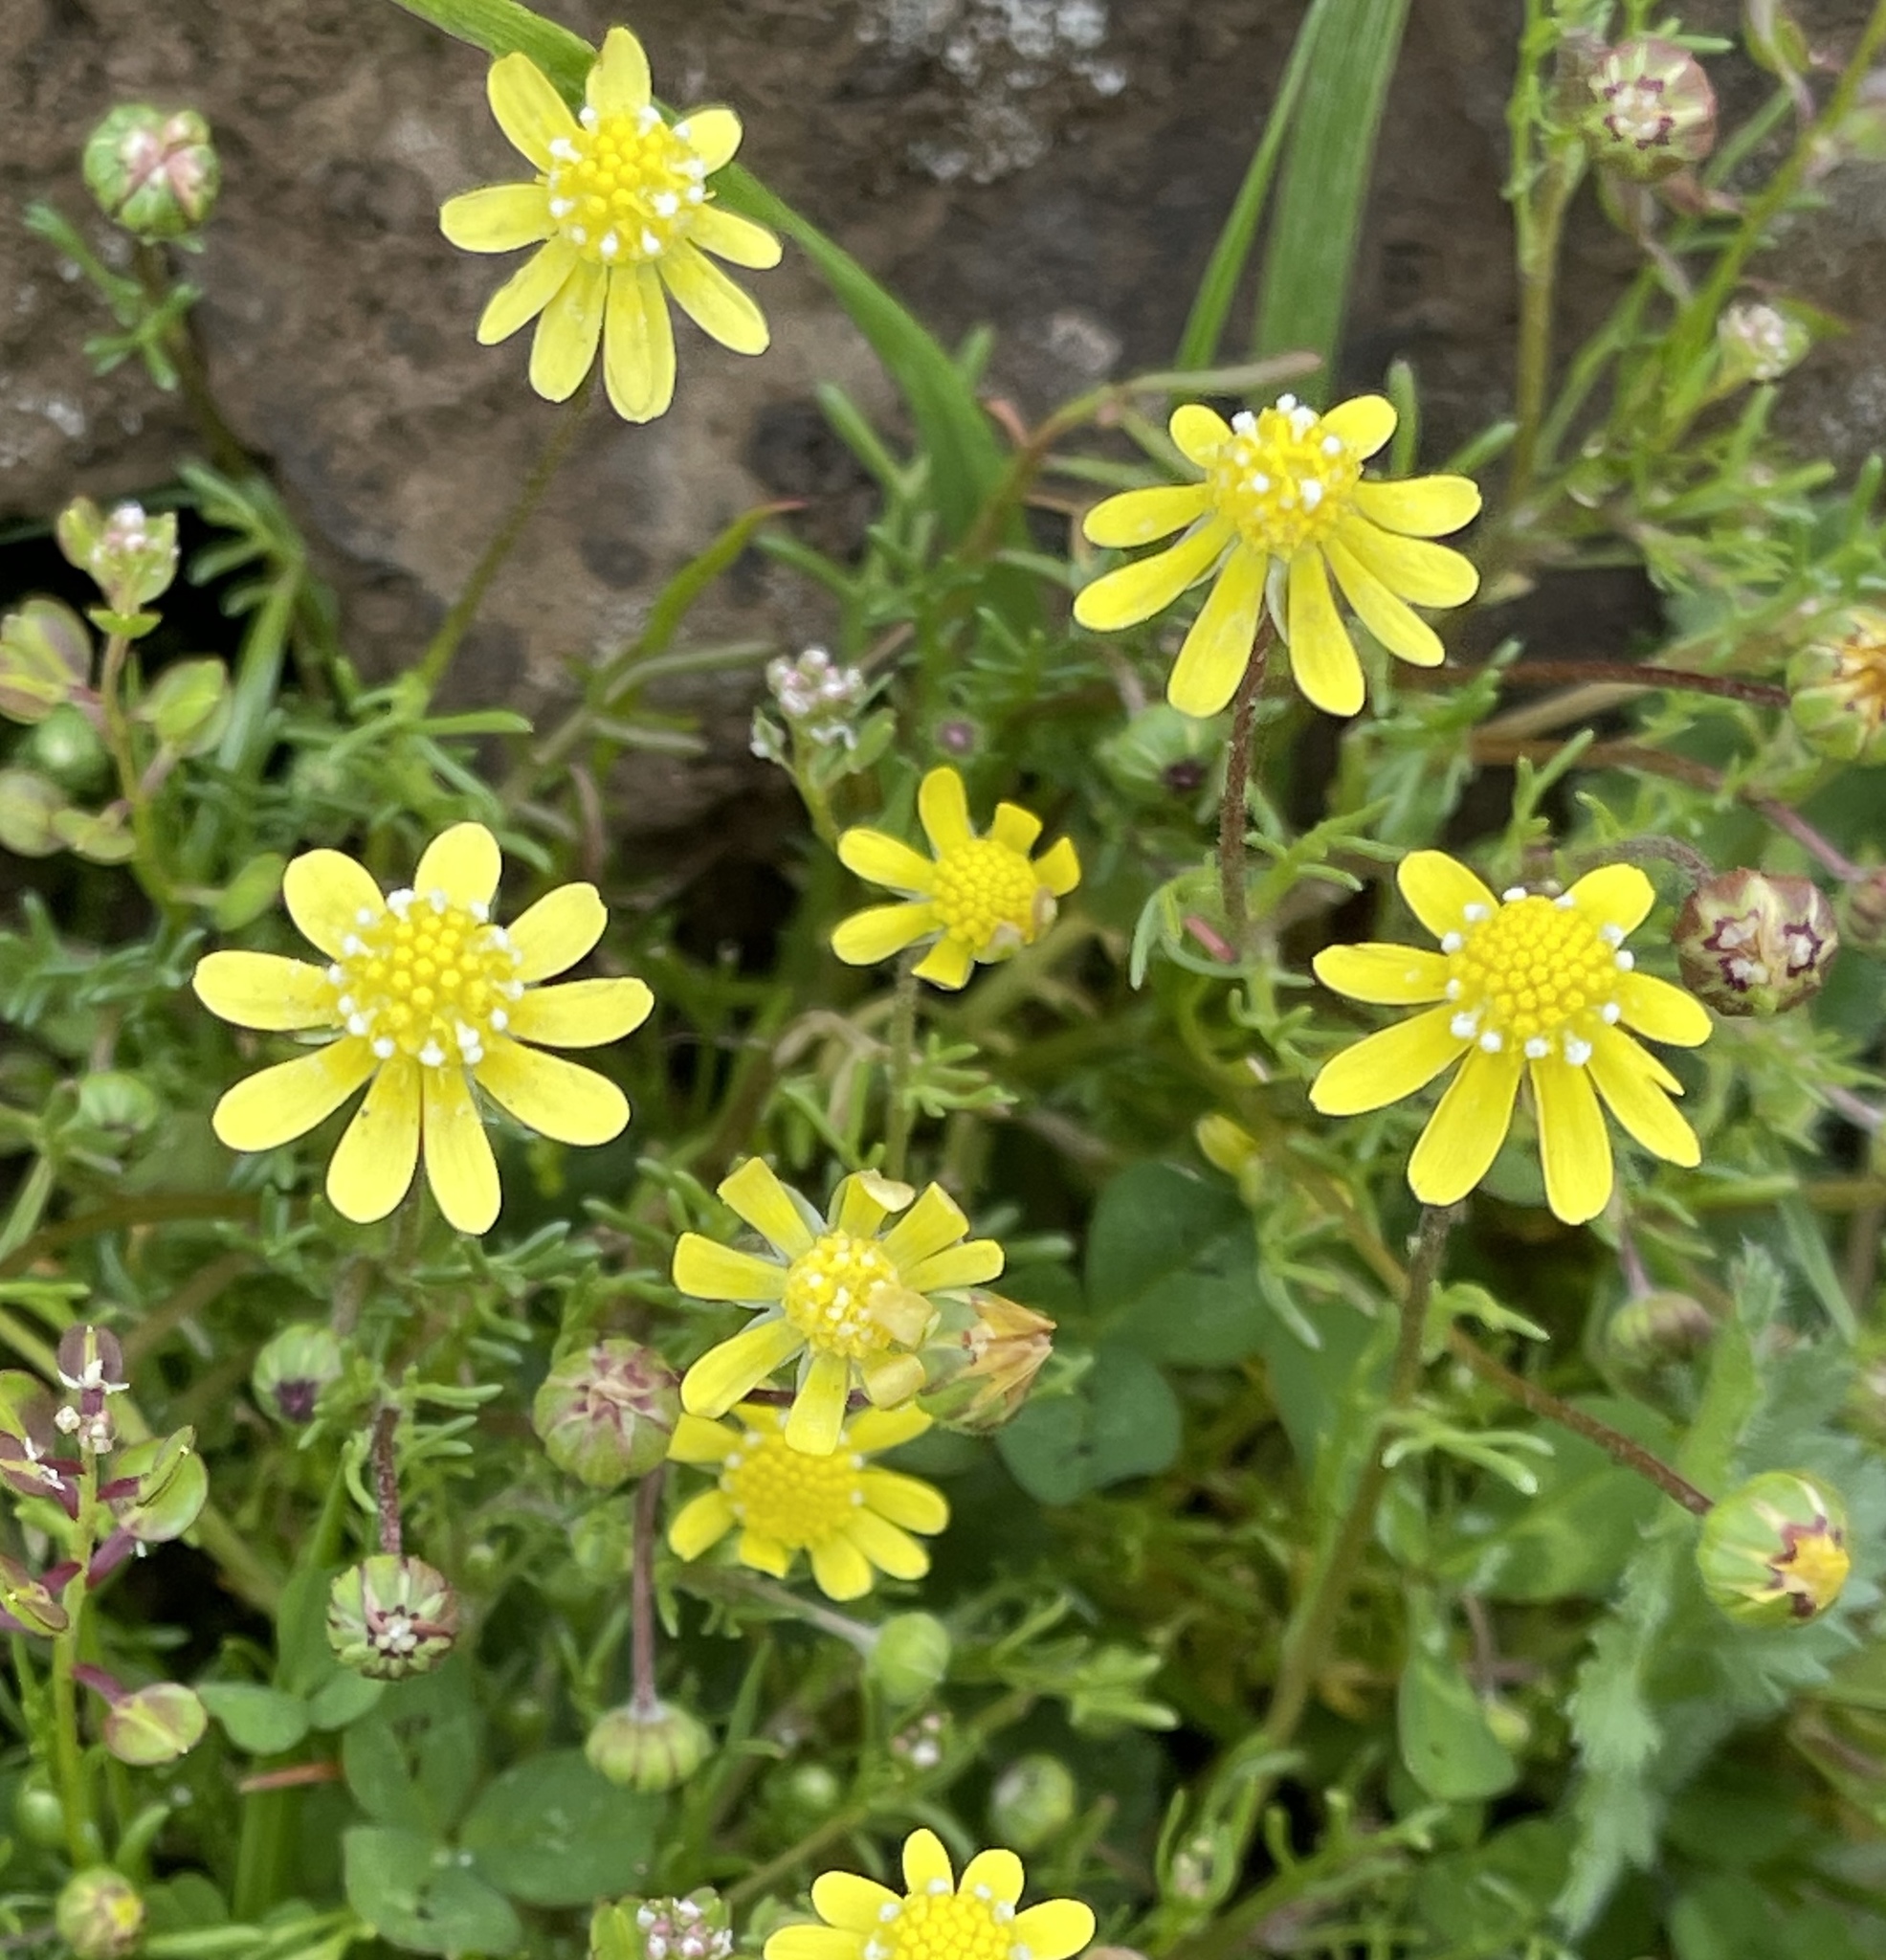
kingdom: Plantae
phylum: Tracheophyta
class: Magnoliopsida
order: Asterales
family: Asteraceae
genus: Blennosperma
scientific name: Blennosperma nanum
